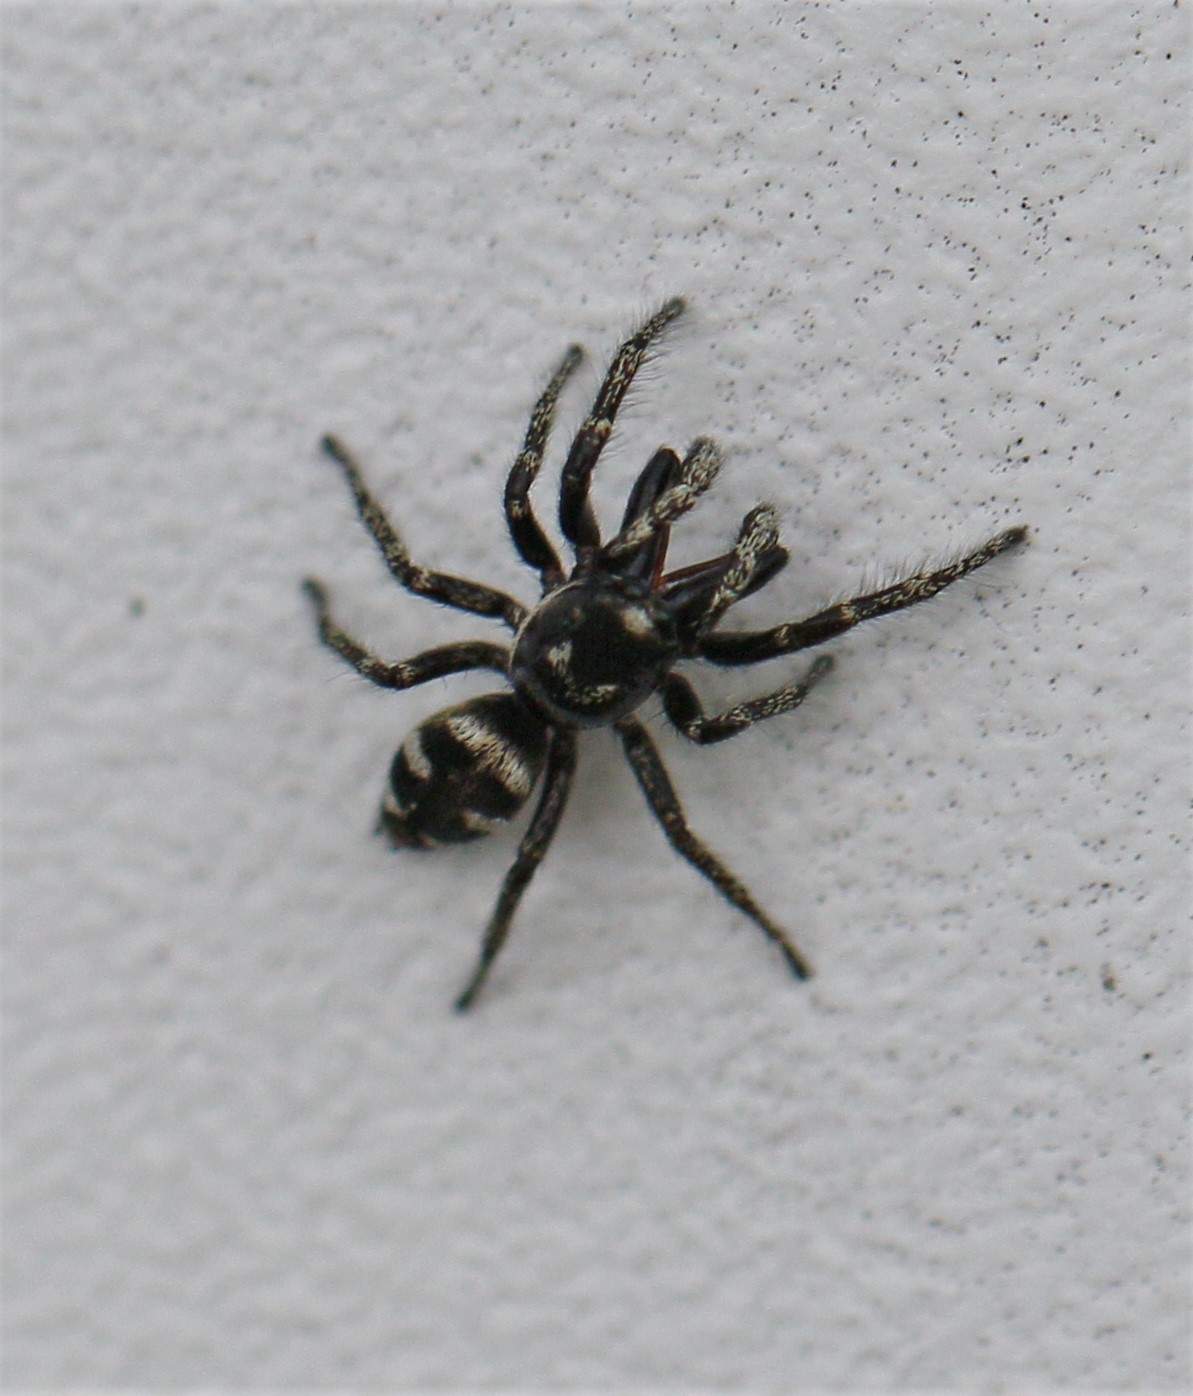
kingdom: Animalia
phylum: Arthropoda
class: Arachnida
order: Araneae
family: Salticidae
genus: Salticus
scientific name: Salticus scenicus
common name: Zebra jumper
